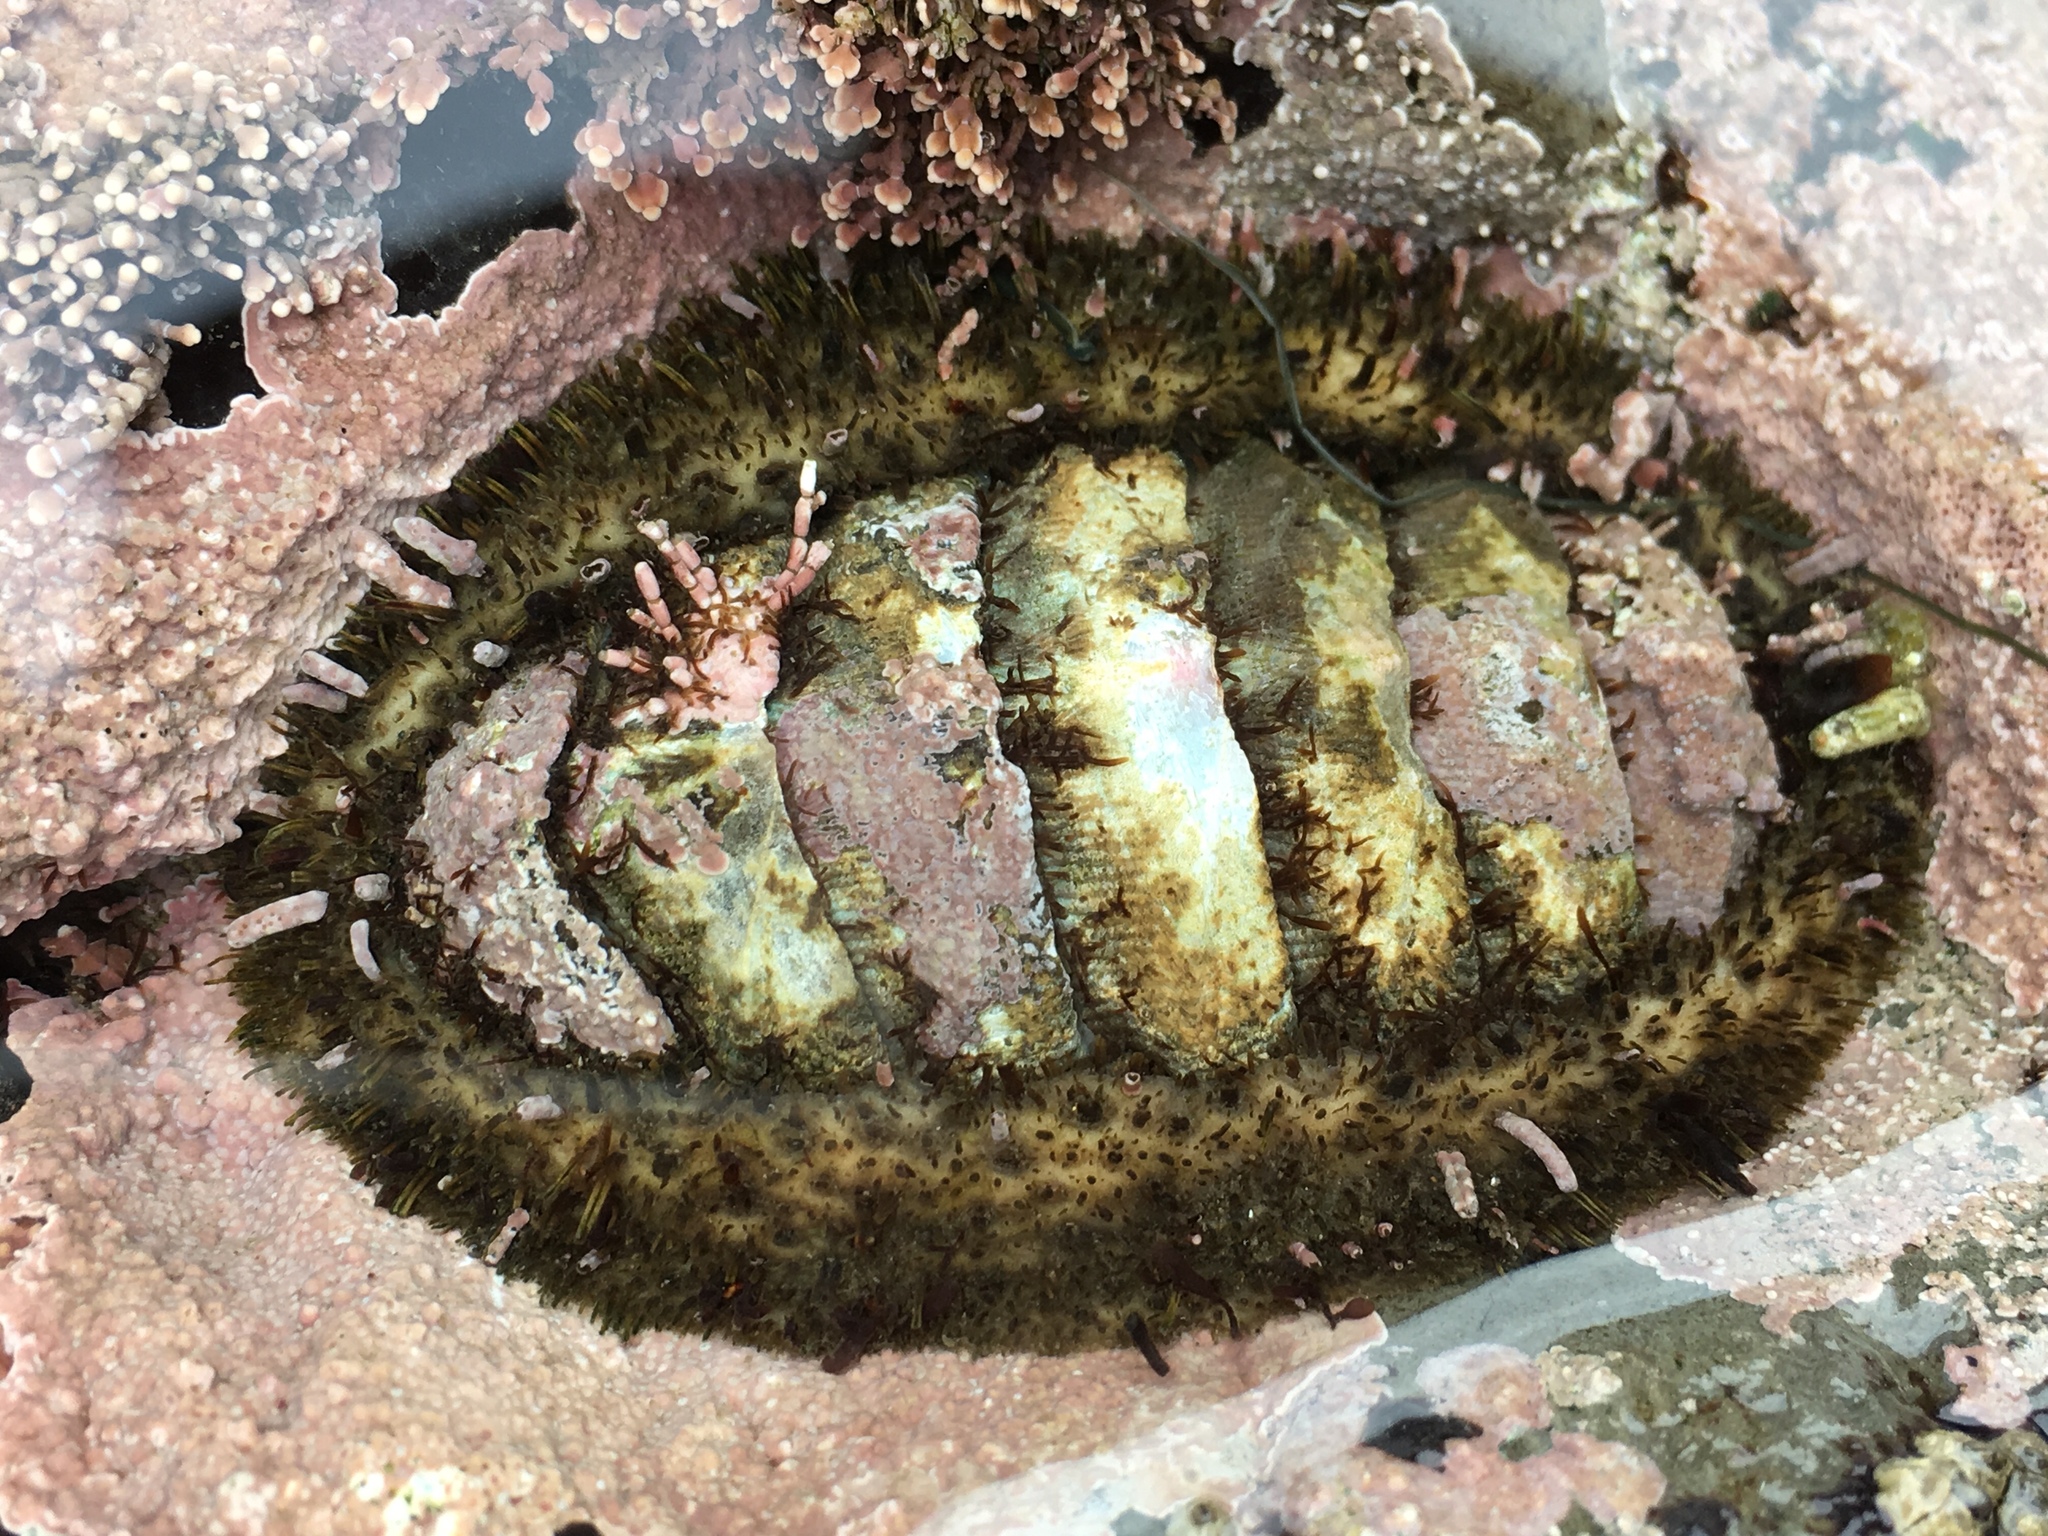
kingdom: Animalia
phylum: Mollusca
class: Polyplacophora
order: Chitonida
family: Mopaliidae
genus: Mopalia
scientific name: Mopalia muscosa
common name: Mossy chiton
